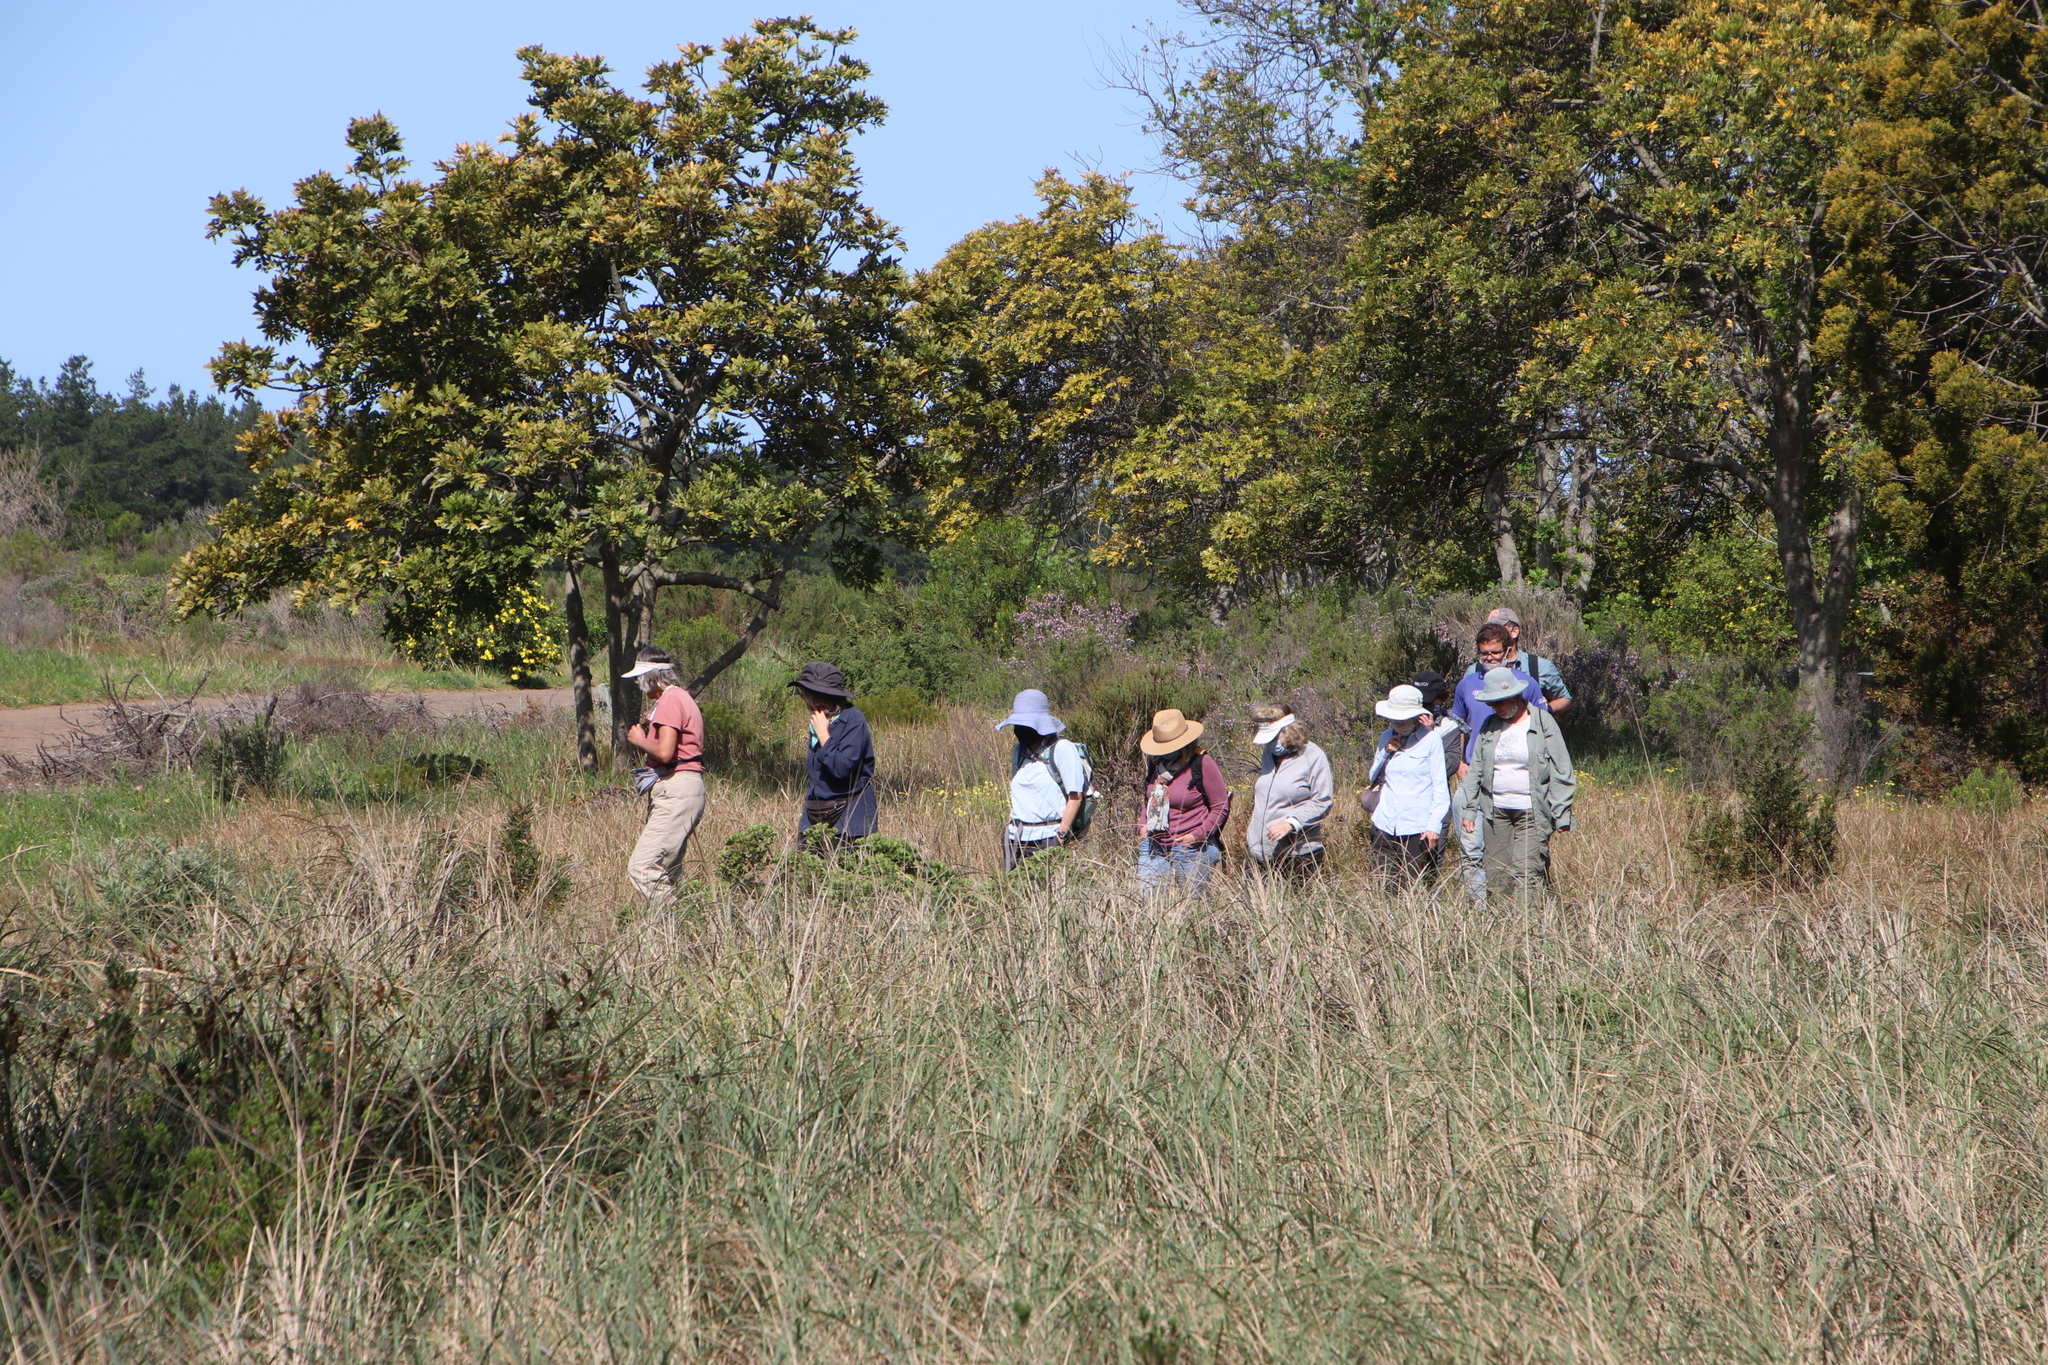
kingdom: Plantae
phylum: Tracheophyta
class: Magnoliopsida
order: Sapindales
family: Meliaceae
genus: Ekebergia
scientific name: Ekebergia capensis
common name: Cape-ash
